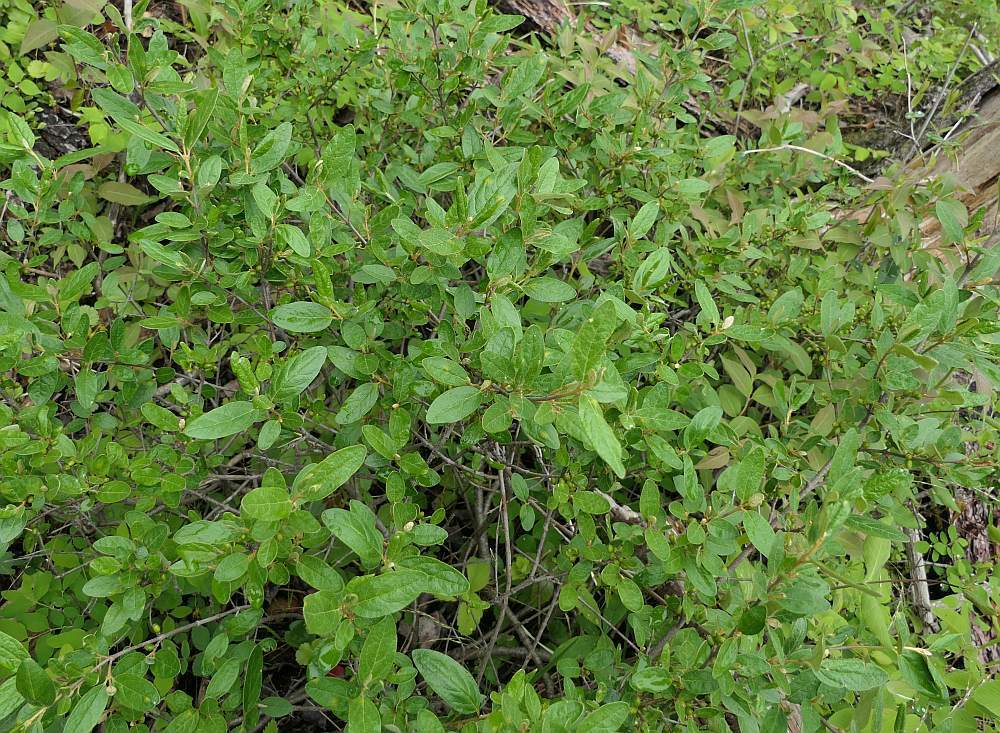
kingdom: Plantae
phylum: Tracheophyta
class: Magnoliopsida
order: Rosales
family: Elaeagnaceae
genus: Shepherdia
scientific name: Shepherdia canadensis
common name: Soapberry
